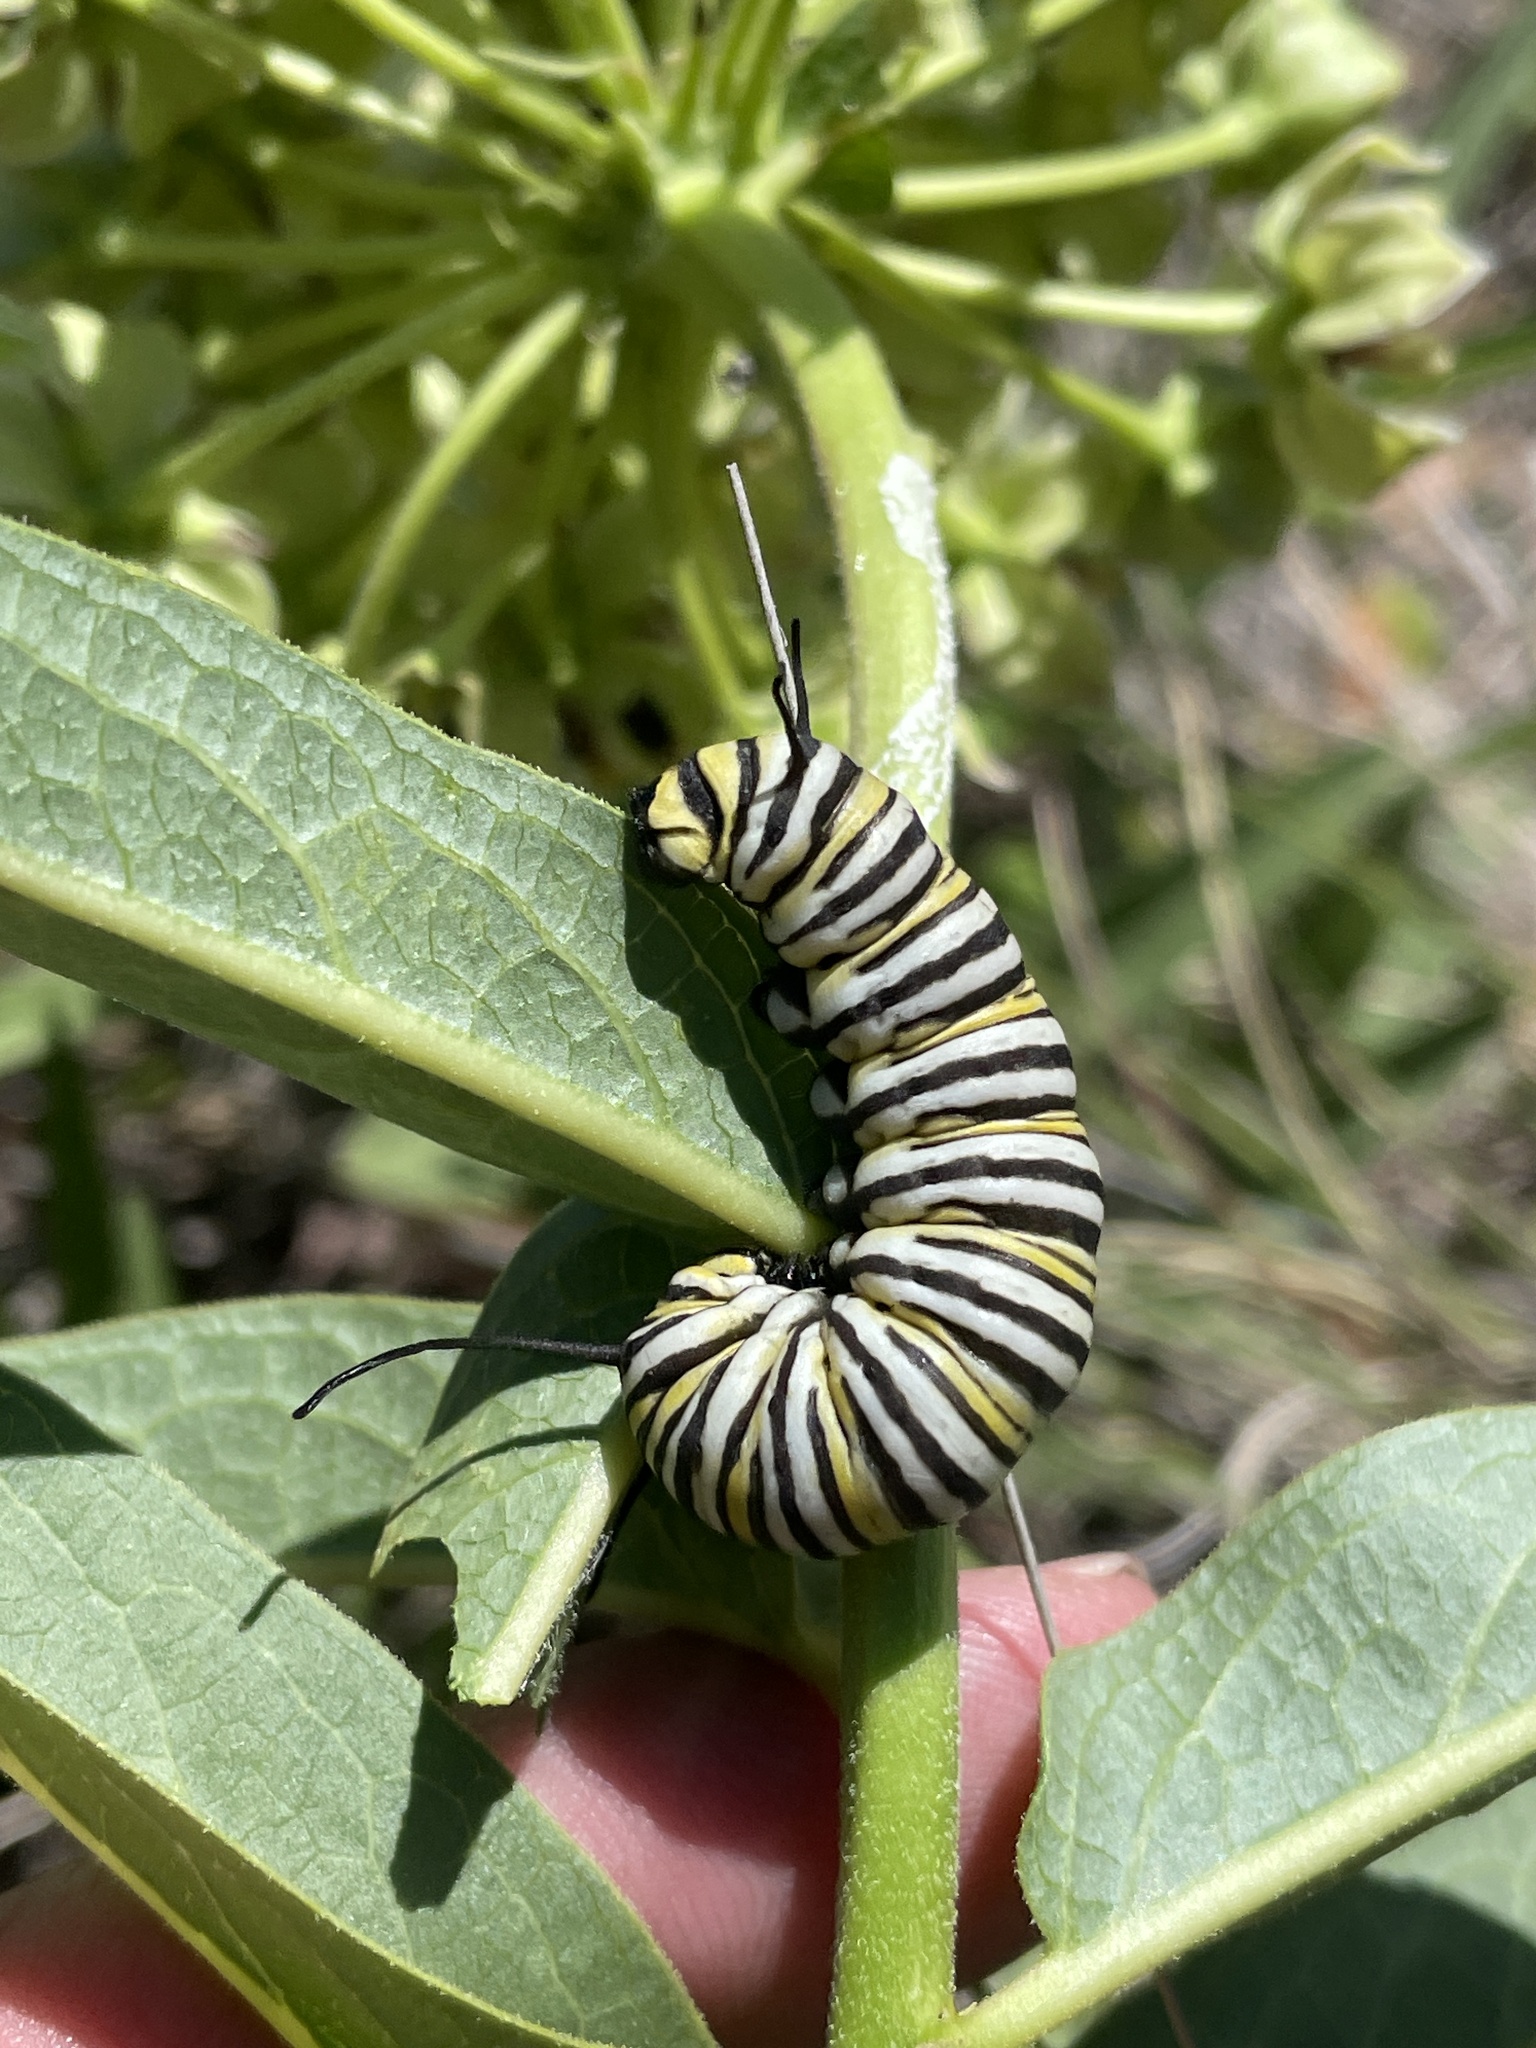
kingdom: Animalia
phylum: Arthropoda
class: Insecta
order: Lepidoptera
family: Nymphalidae
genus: Danaus
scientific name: Danaus plexippus
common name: Monarch
